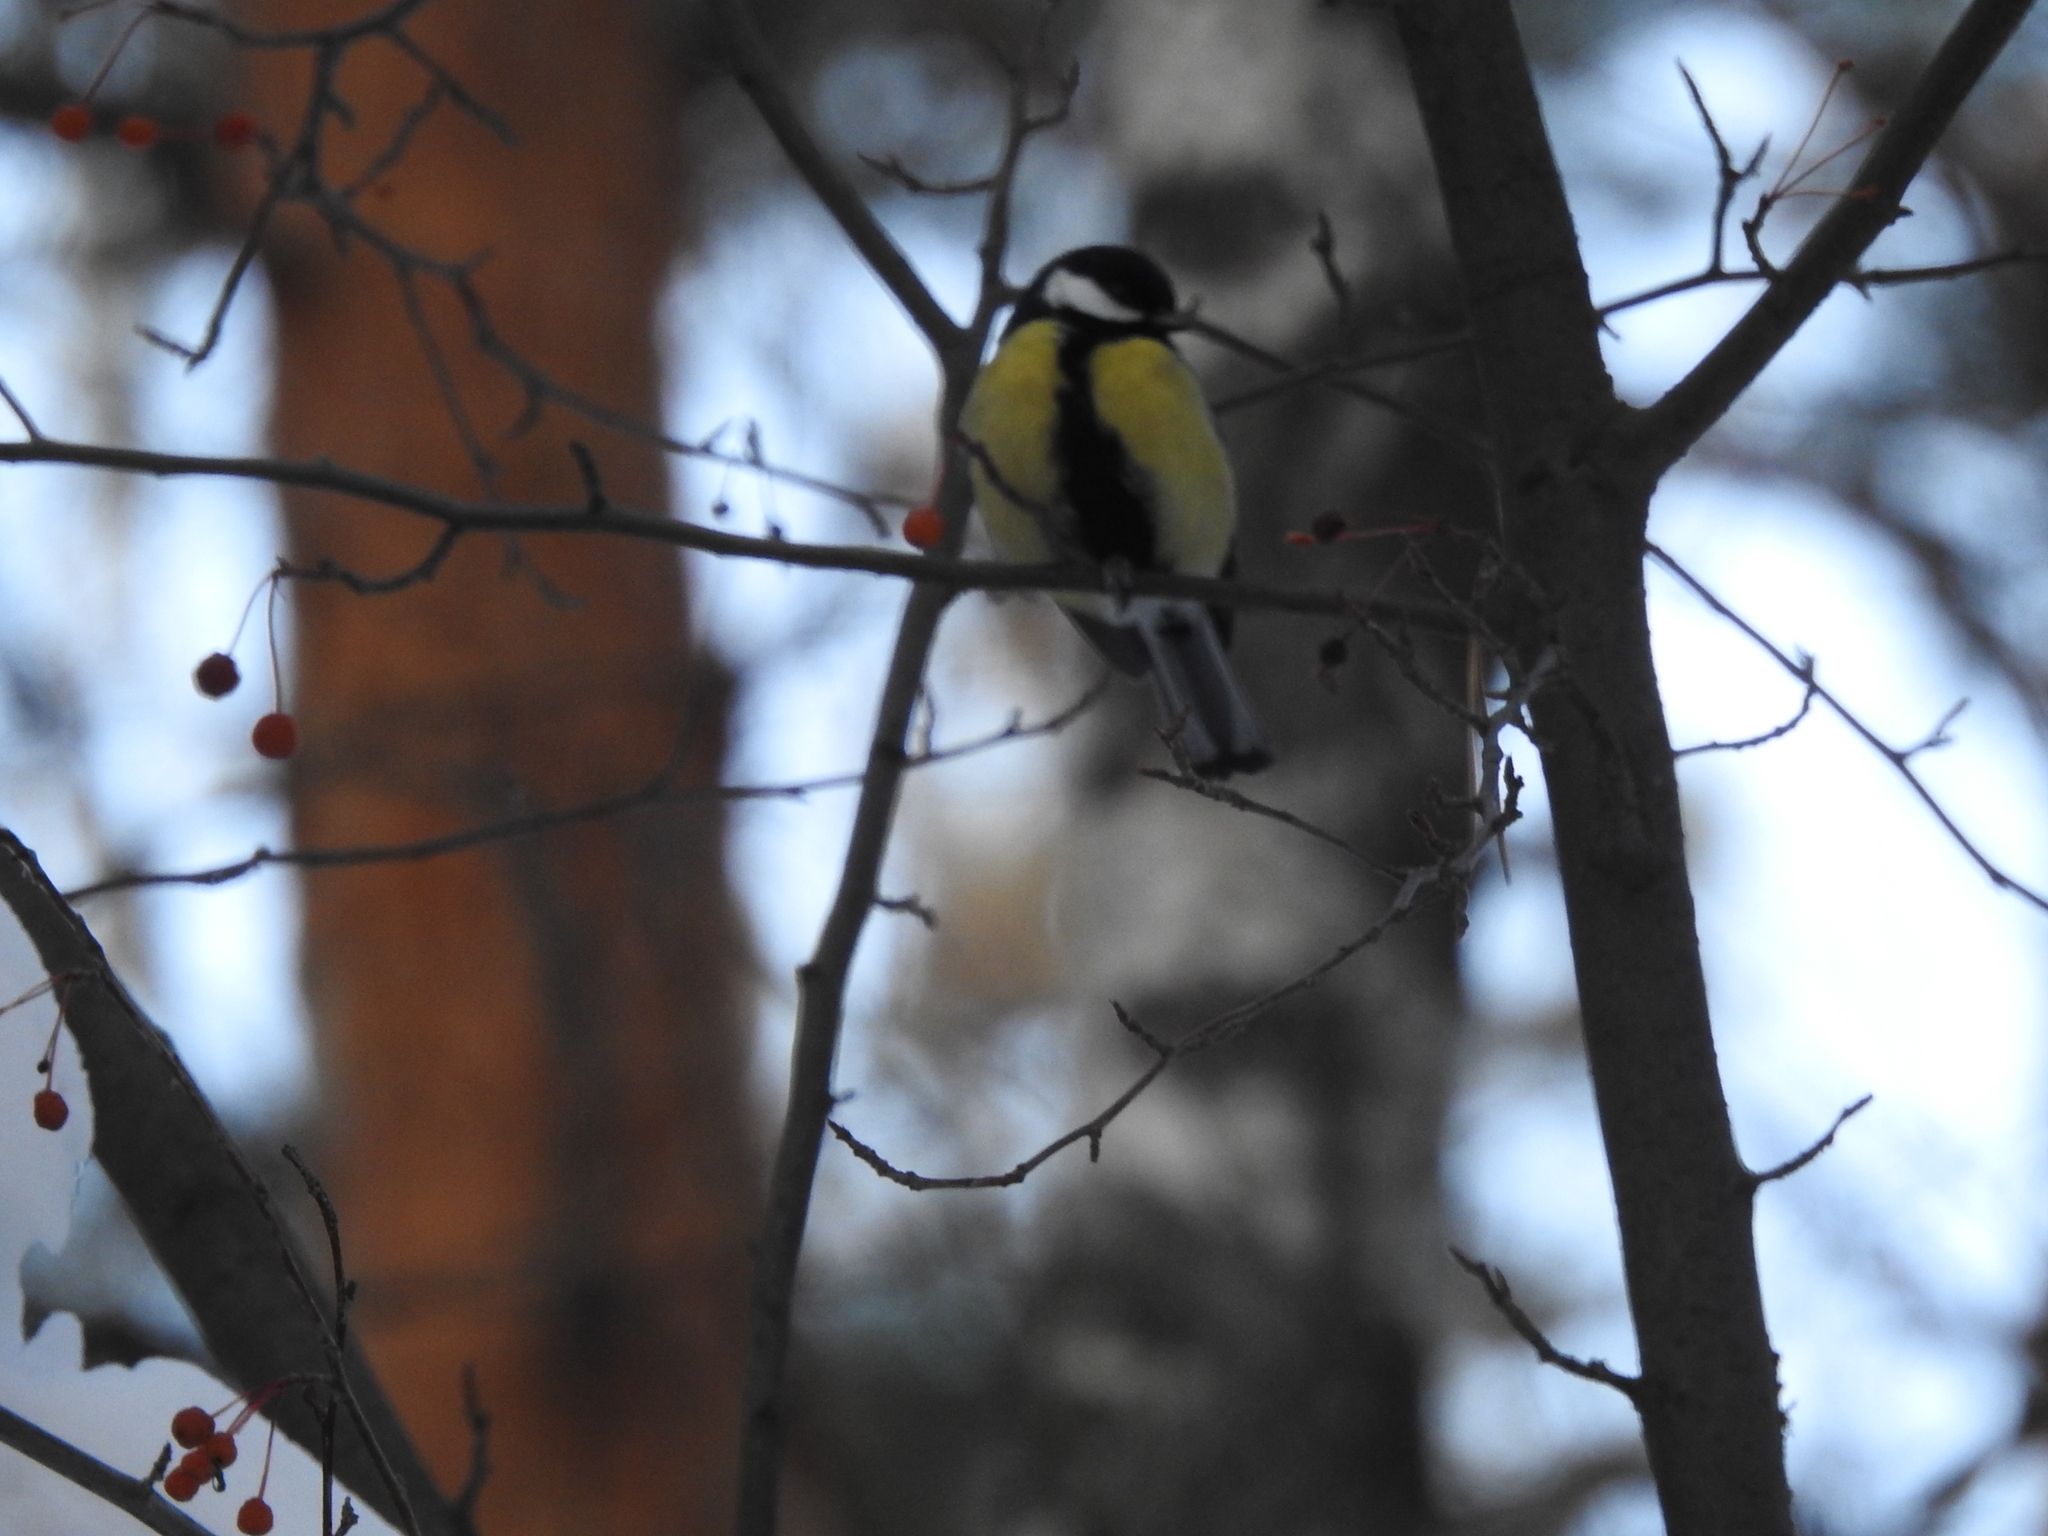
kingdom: Animalia
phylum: Chordata
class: Aves
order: Passeriformes
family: Paridae
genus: Parus
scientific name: Parus major
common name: Great tit
